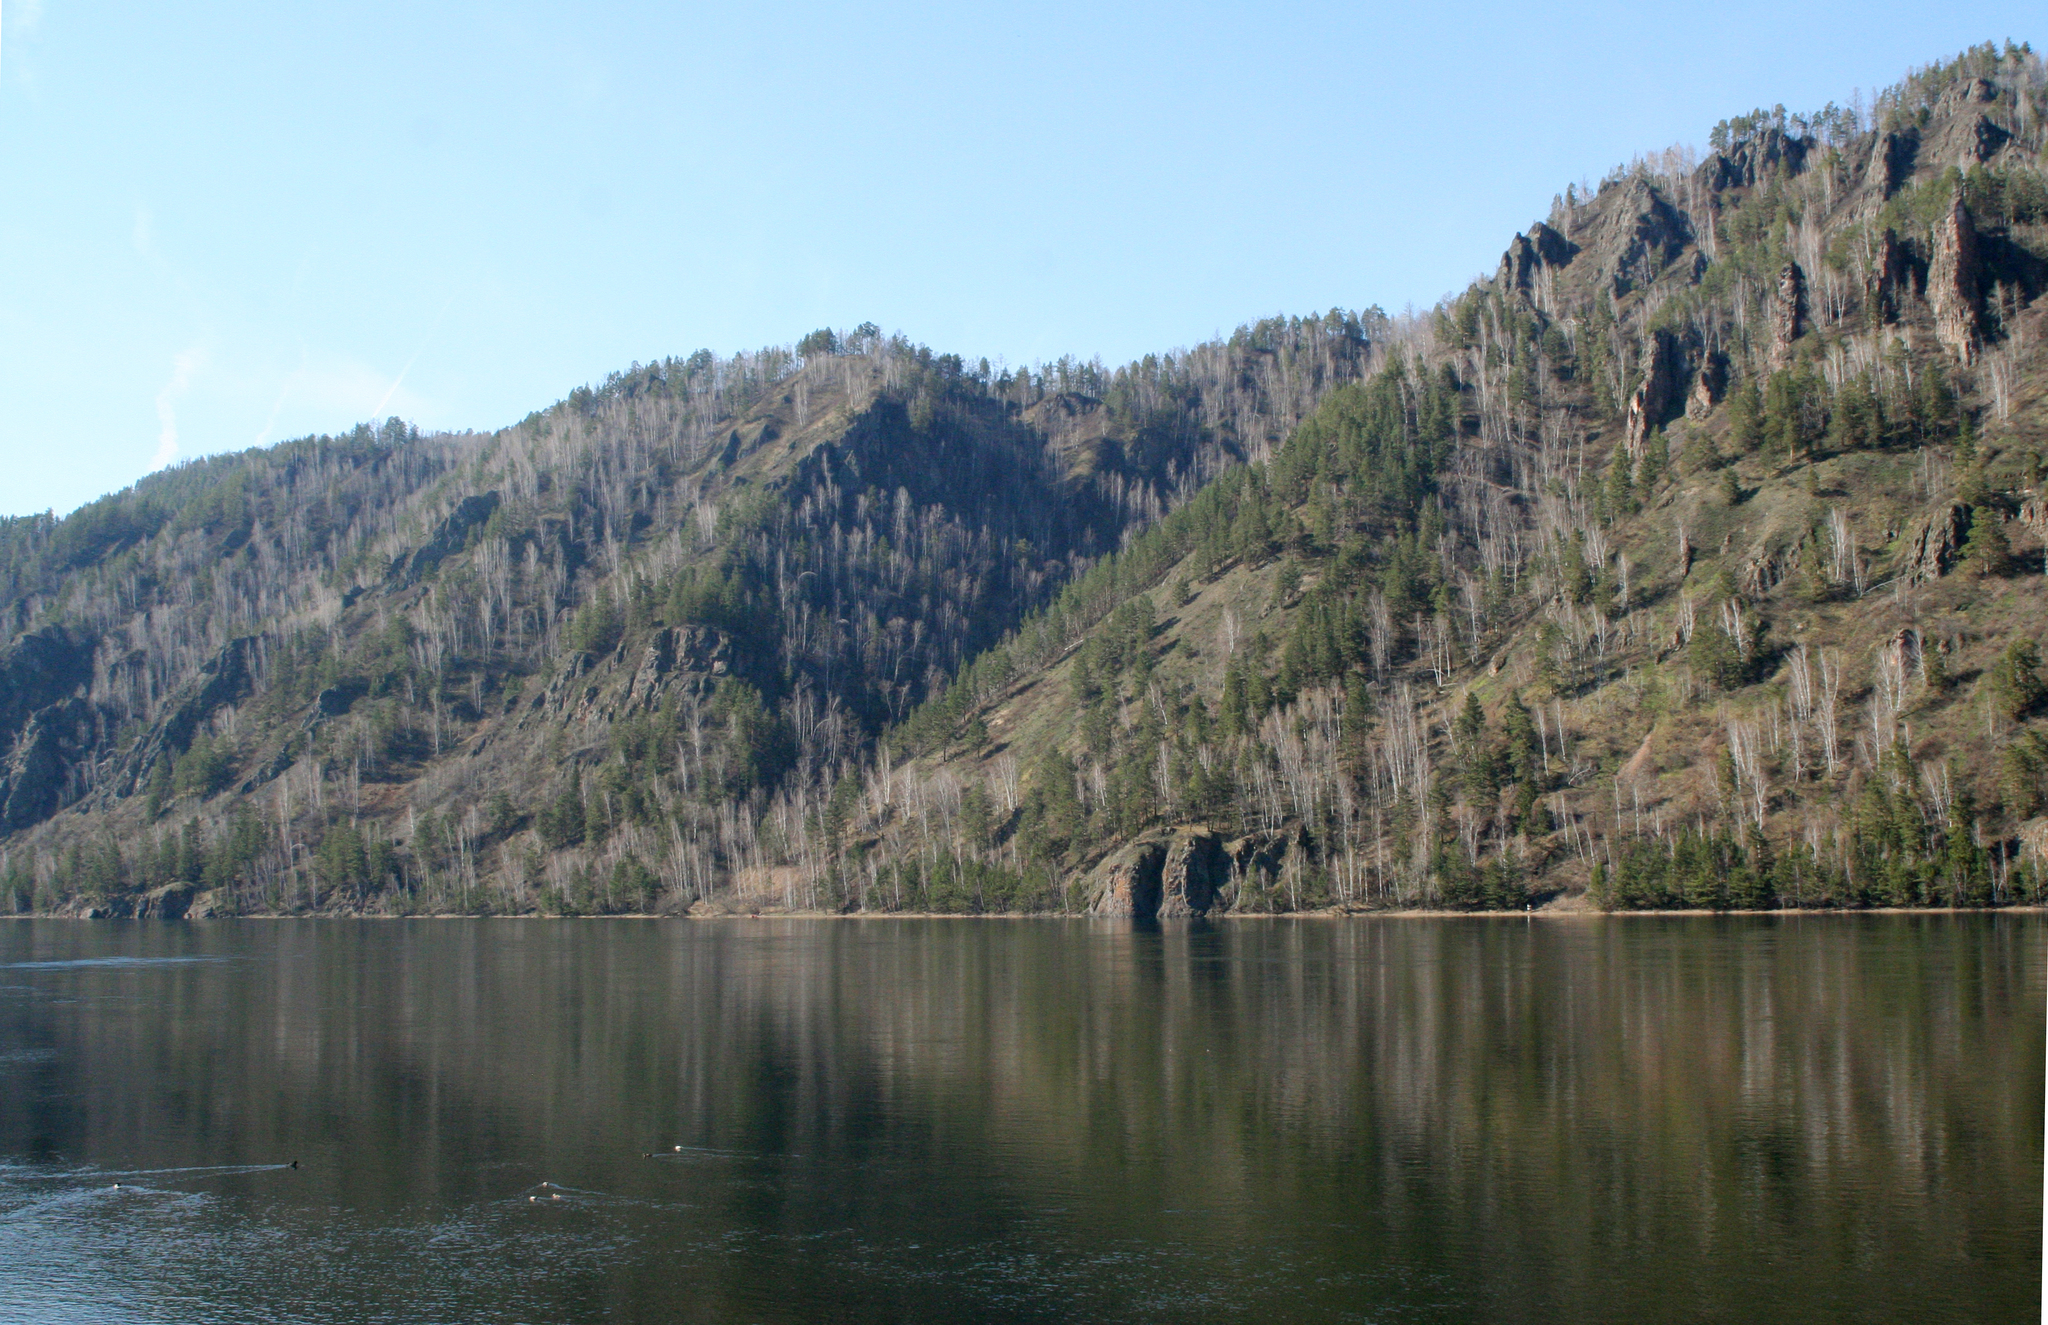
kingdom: Plantae
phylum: Tracheophyta
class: Magnoliopsida
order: Fagales
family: Betulaceae
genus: Betula
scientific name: Betula pendula
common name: Silver birch
